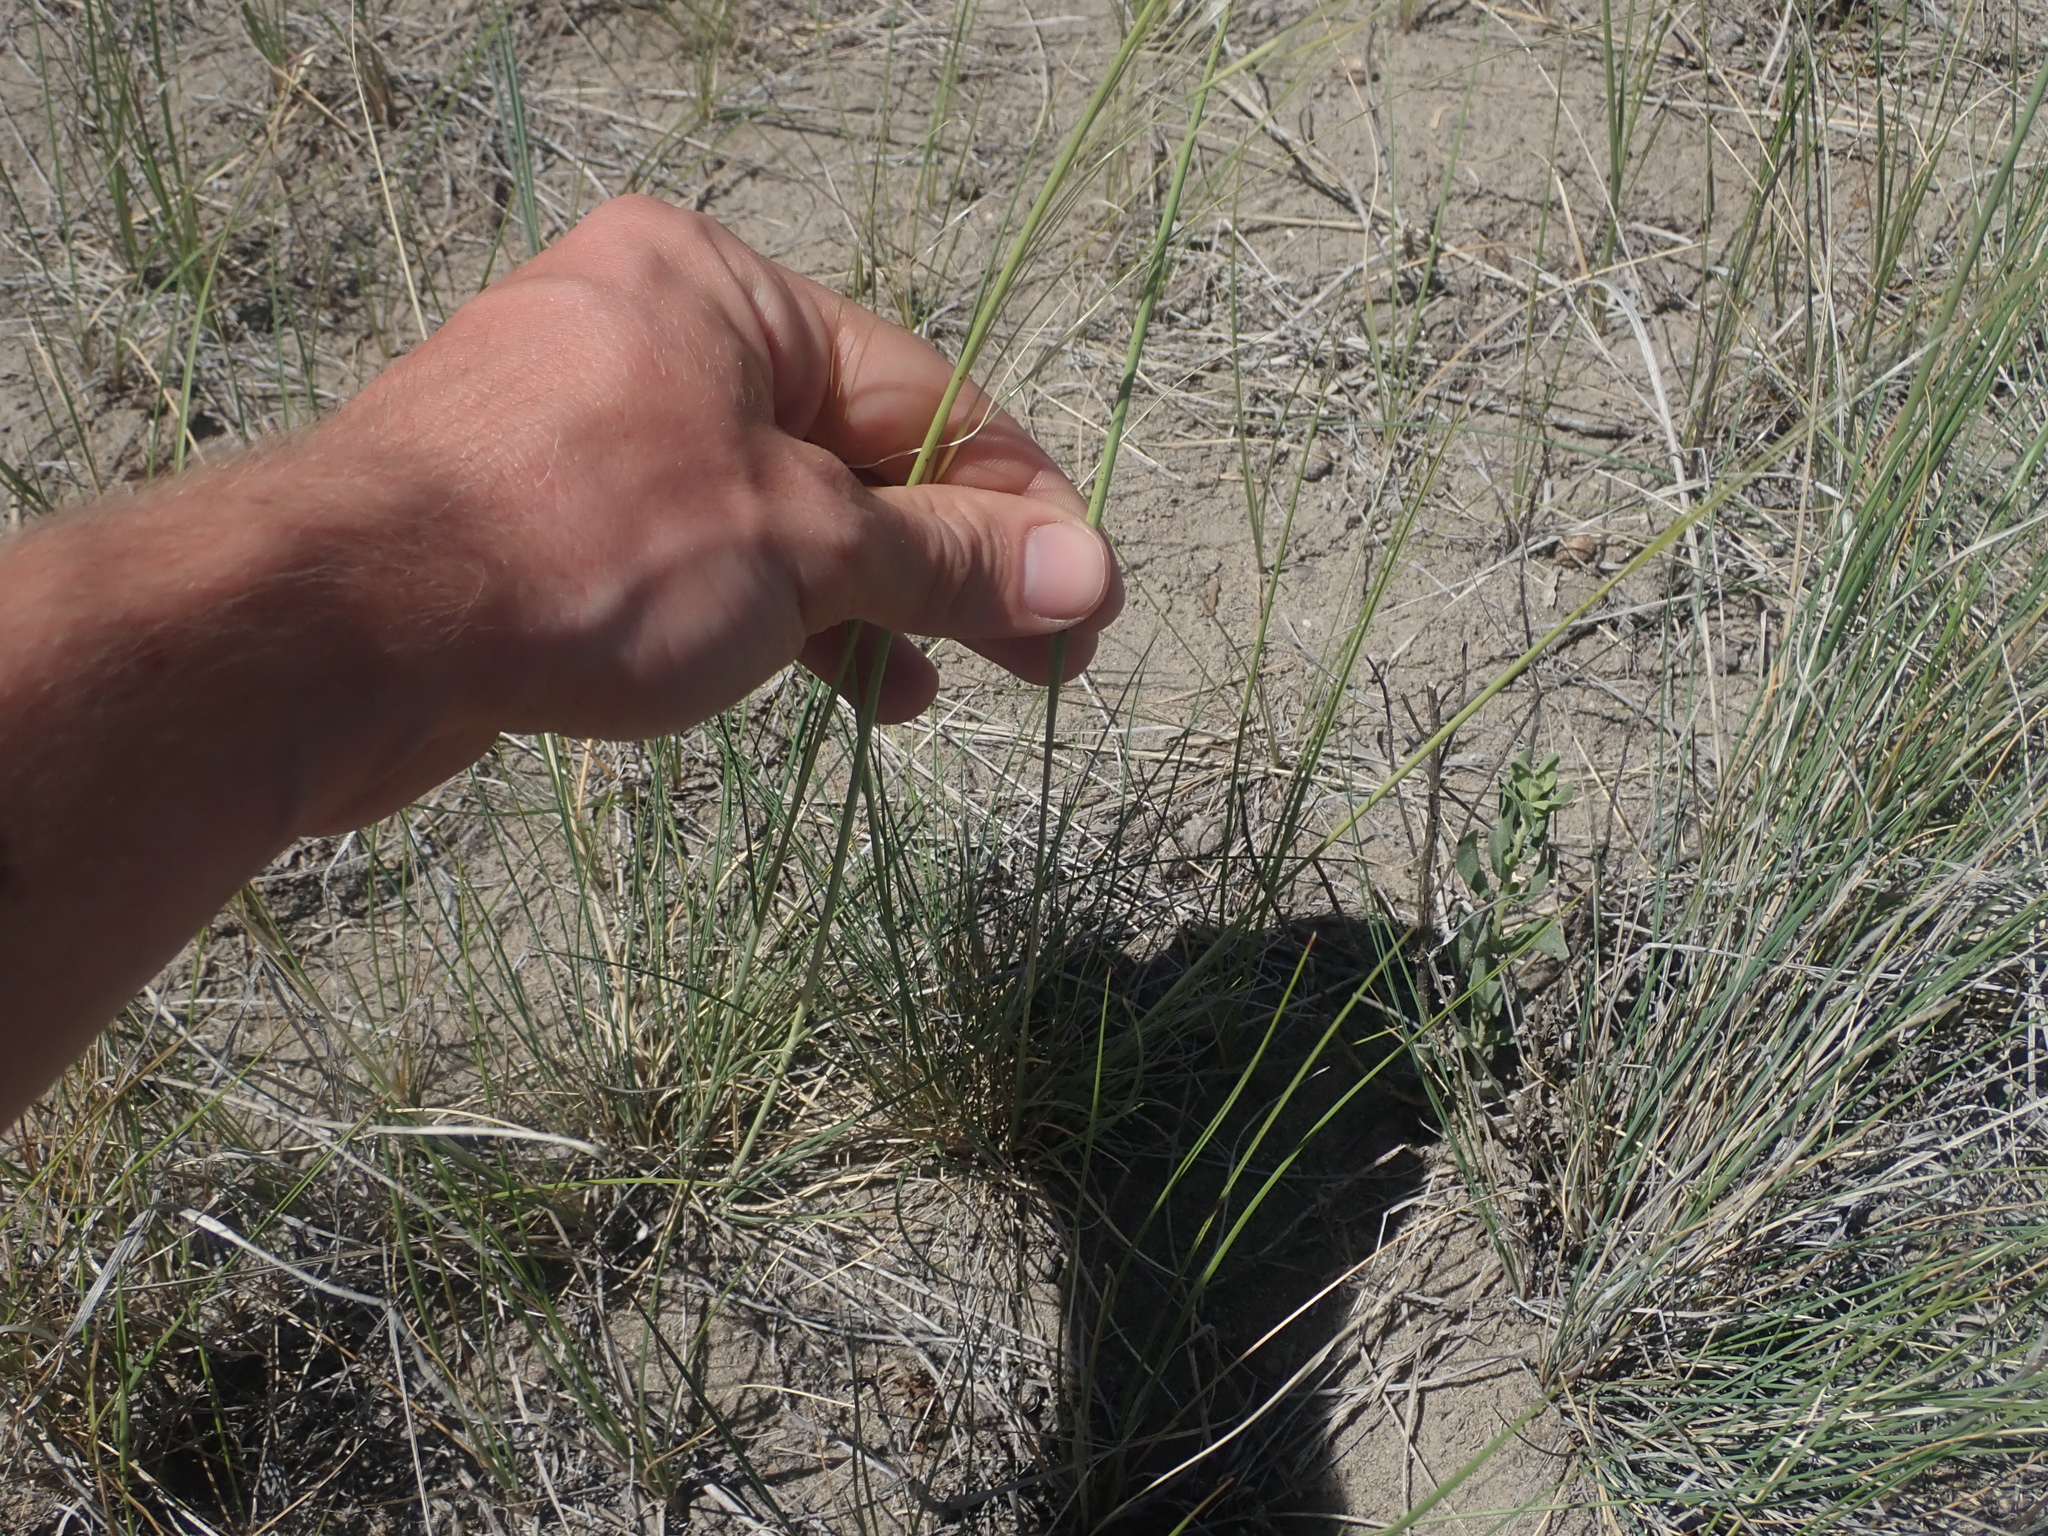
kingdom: Plantae
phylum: Tracheophyta
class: Liliopsida
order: Poales
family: Poaceae
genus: Hesperostipa
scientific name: Hesperostipa comata
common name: Needle-and-thread grass
